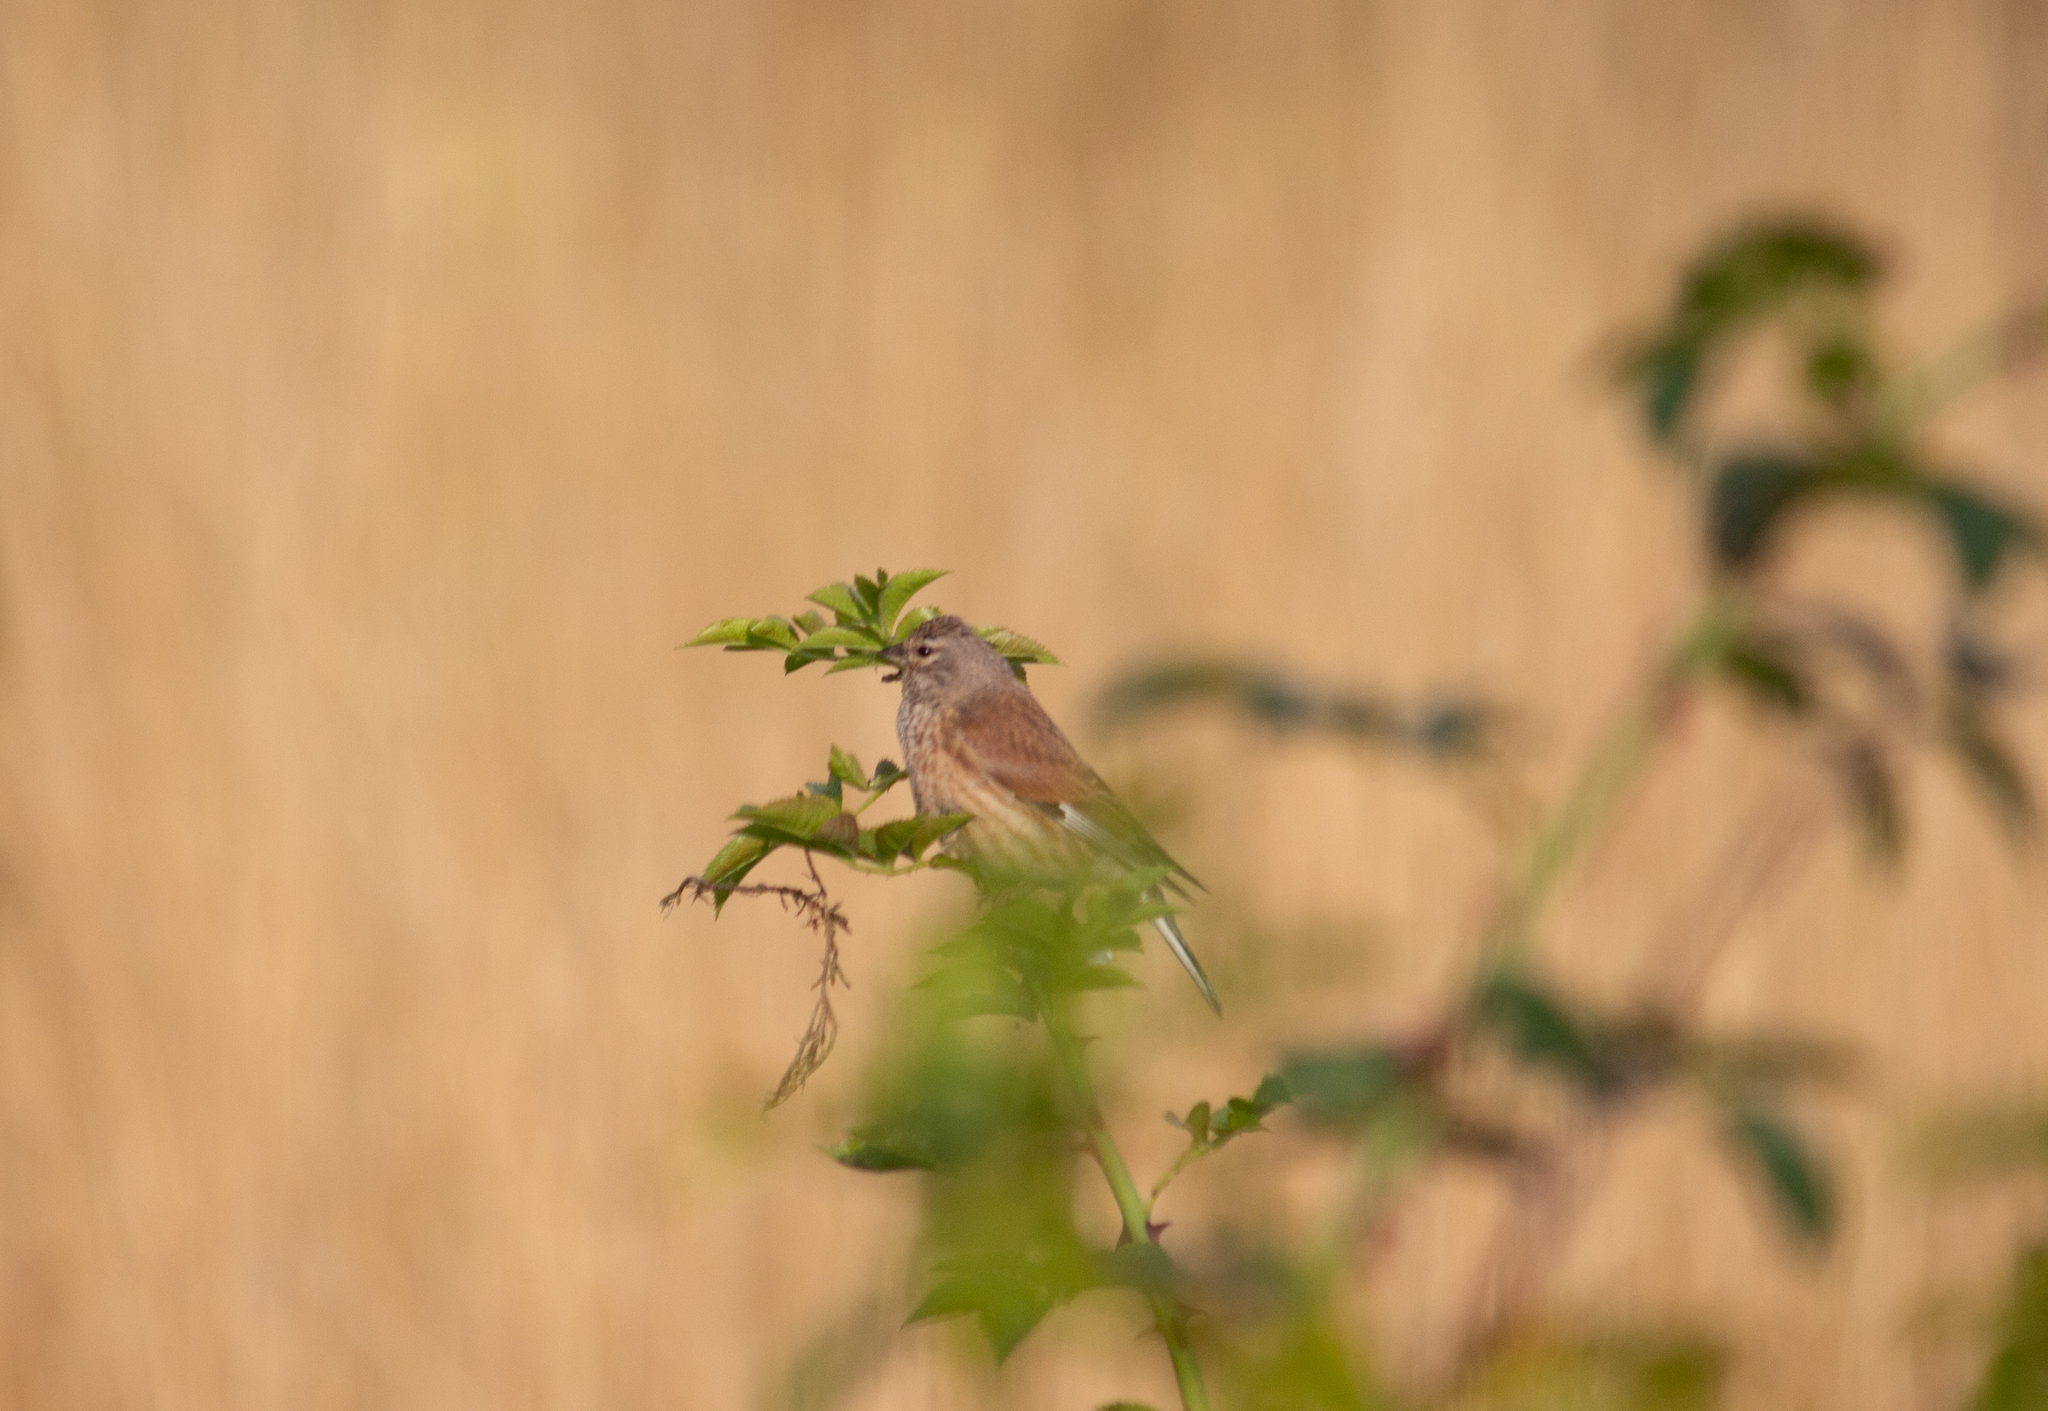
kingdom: Animalia
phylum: Chordata
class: Aves
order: Passeriformes
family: Fringillidae
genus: Linaria
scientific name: Linaria cannabina
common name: Common linnet
